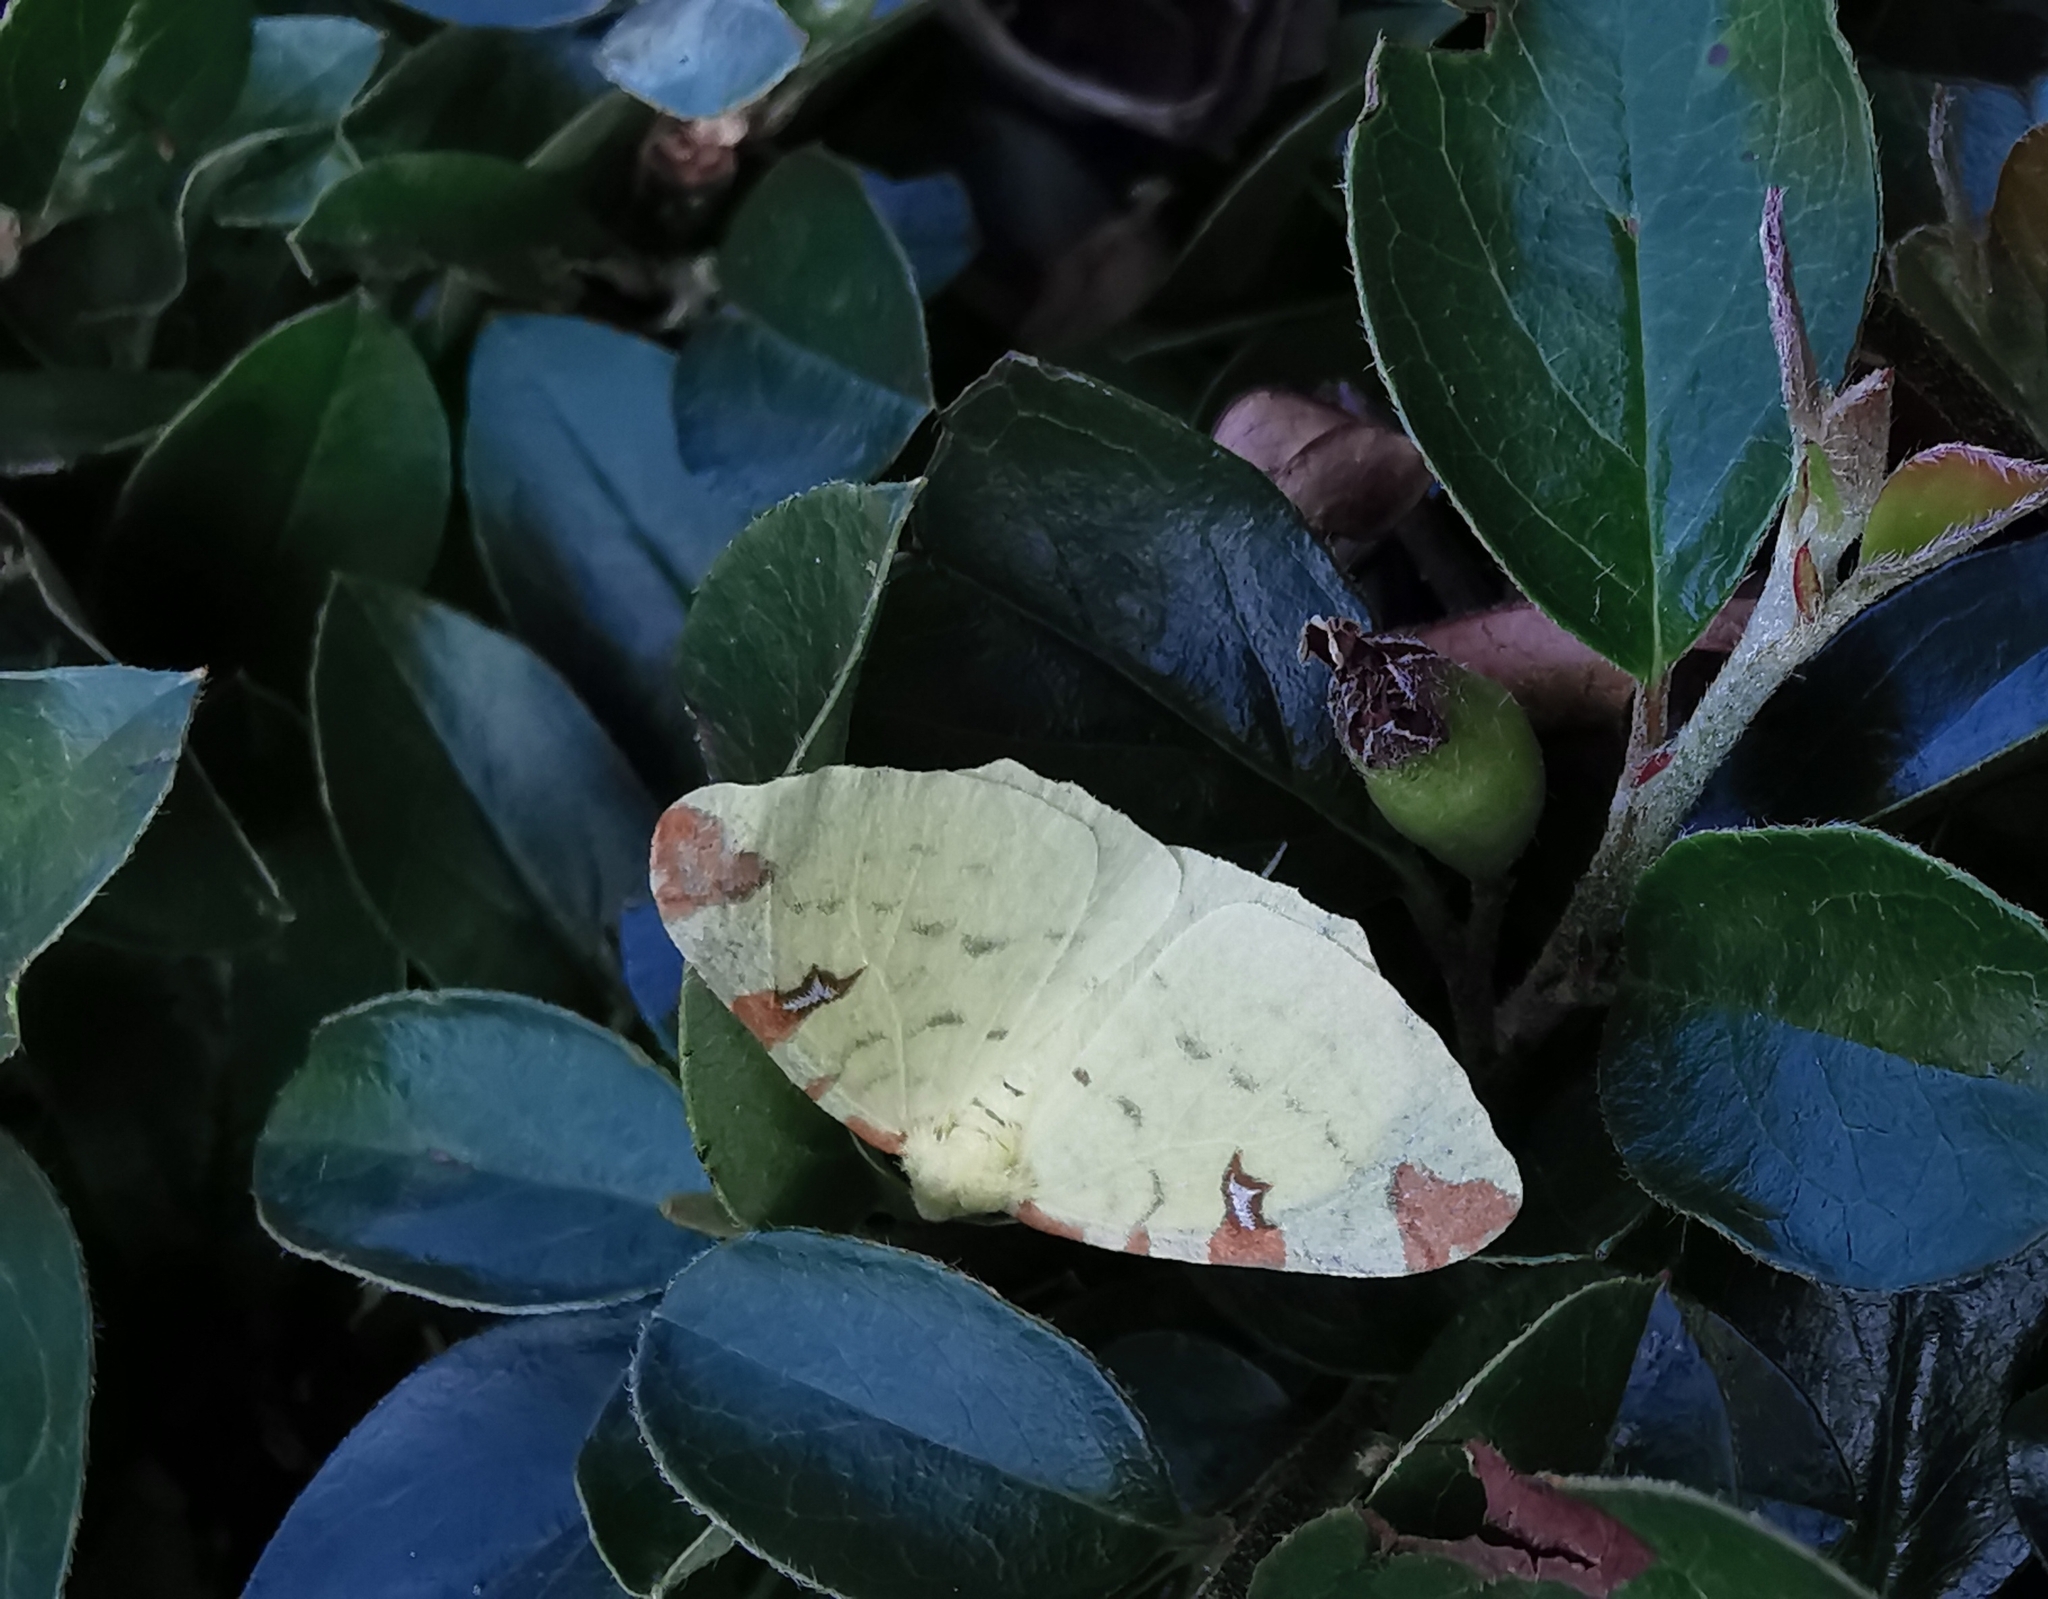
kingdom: Animalia
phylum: Arthropoda
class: Insecta
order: Lepidoptera
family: Geometridae
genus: Opisthograptis
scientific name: Opisthograptis luteolata
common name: Brimstone moth
